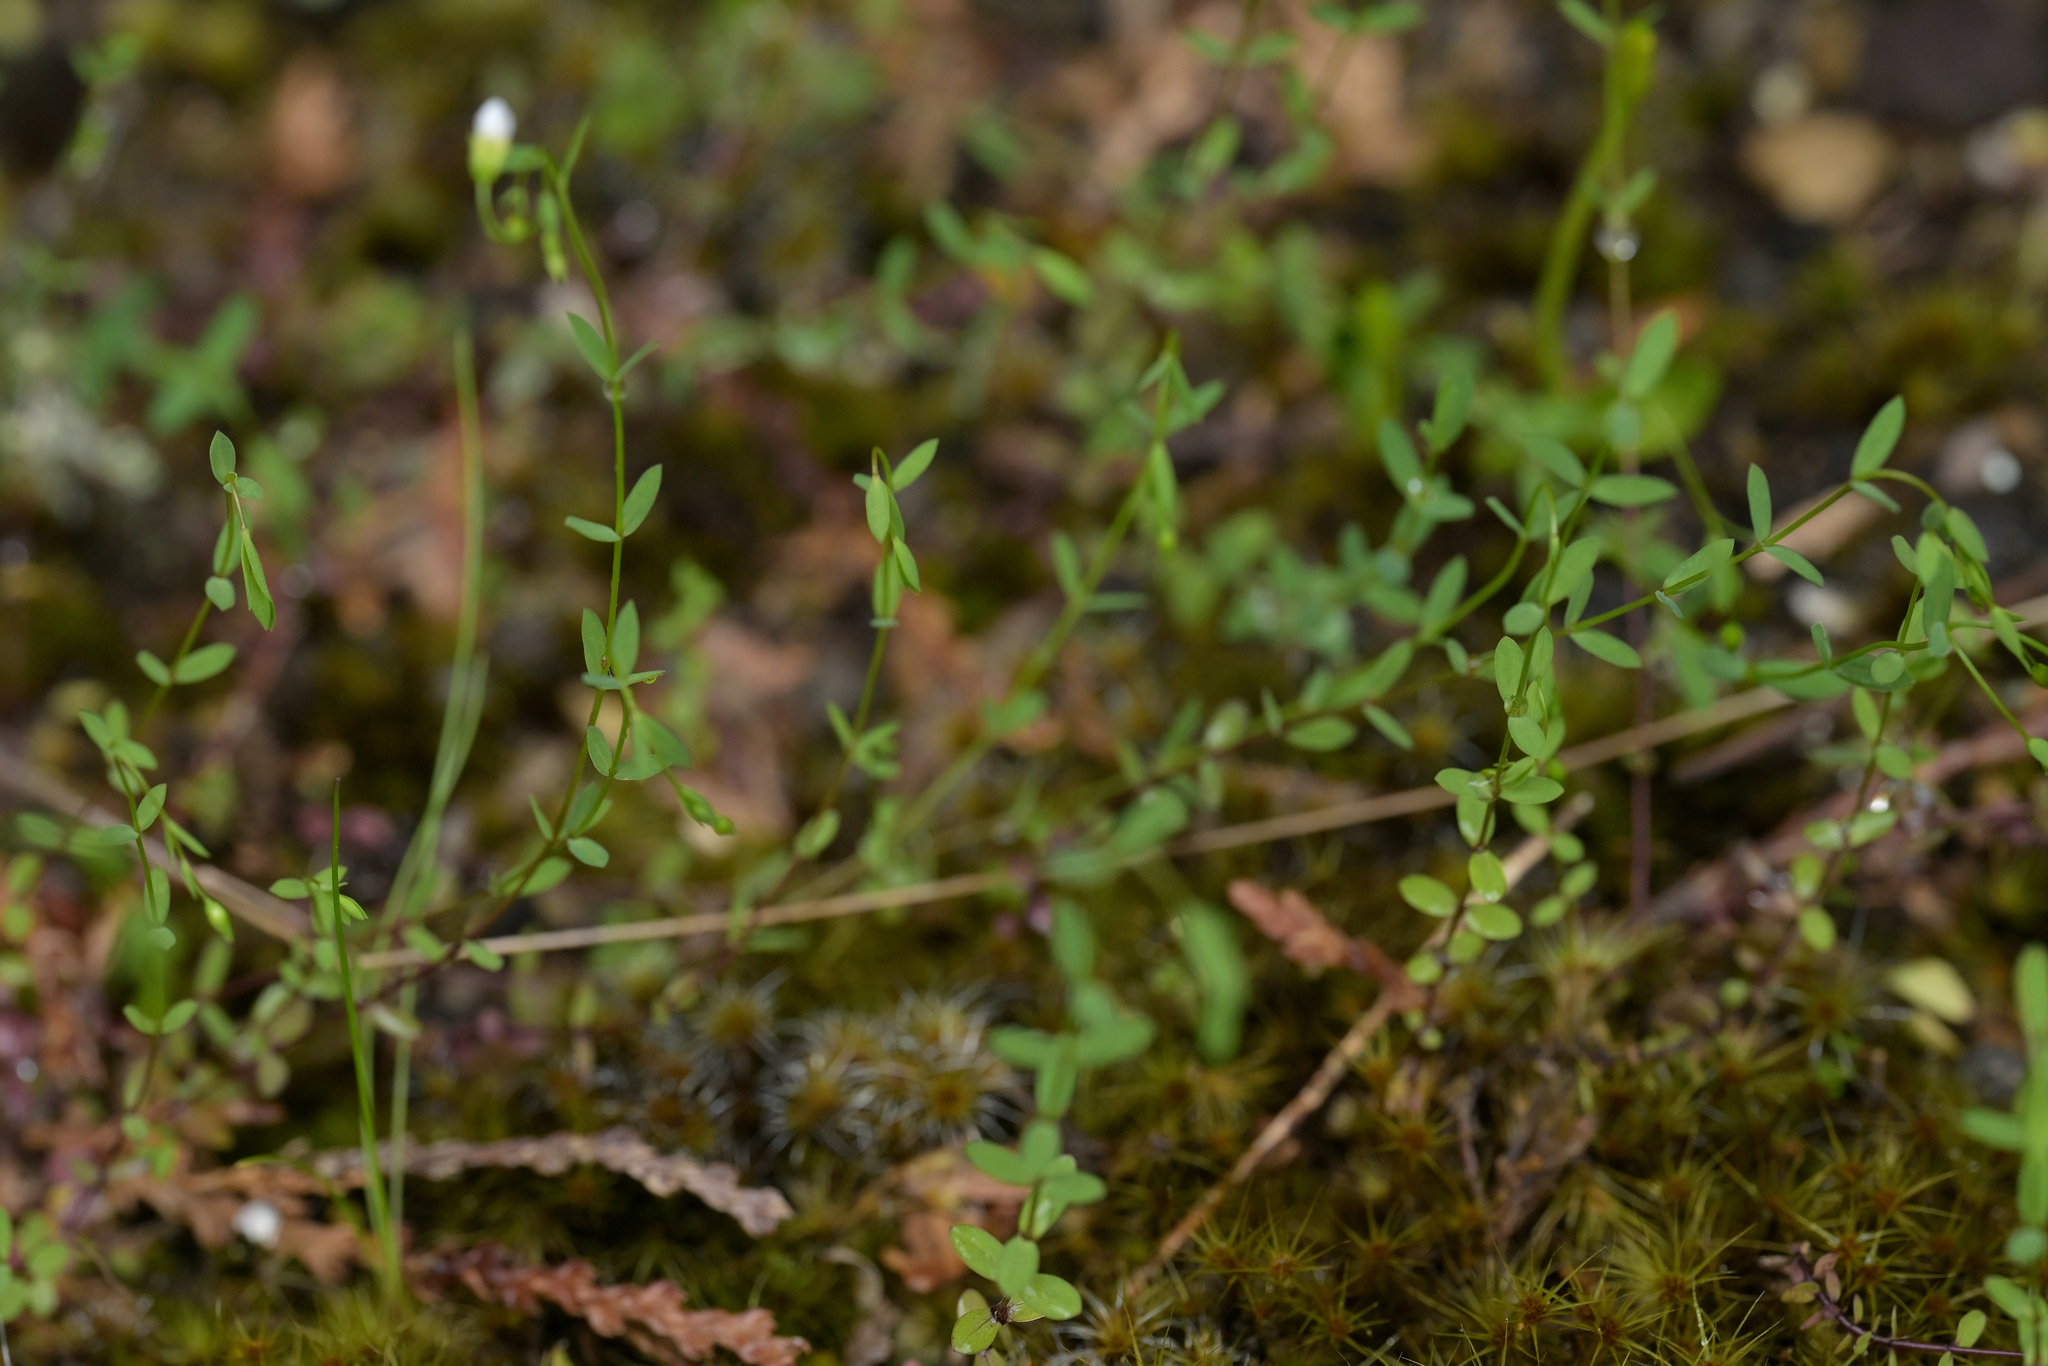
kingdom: Plantae
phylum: Tracheophyta
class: Magnoliopsida
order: Malpighiales
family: Linaceae
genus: Linum
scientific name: Linum catharticum
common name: Fairy flax
